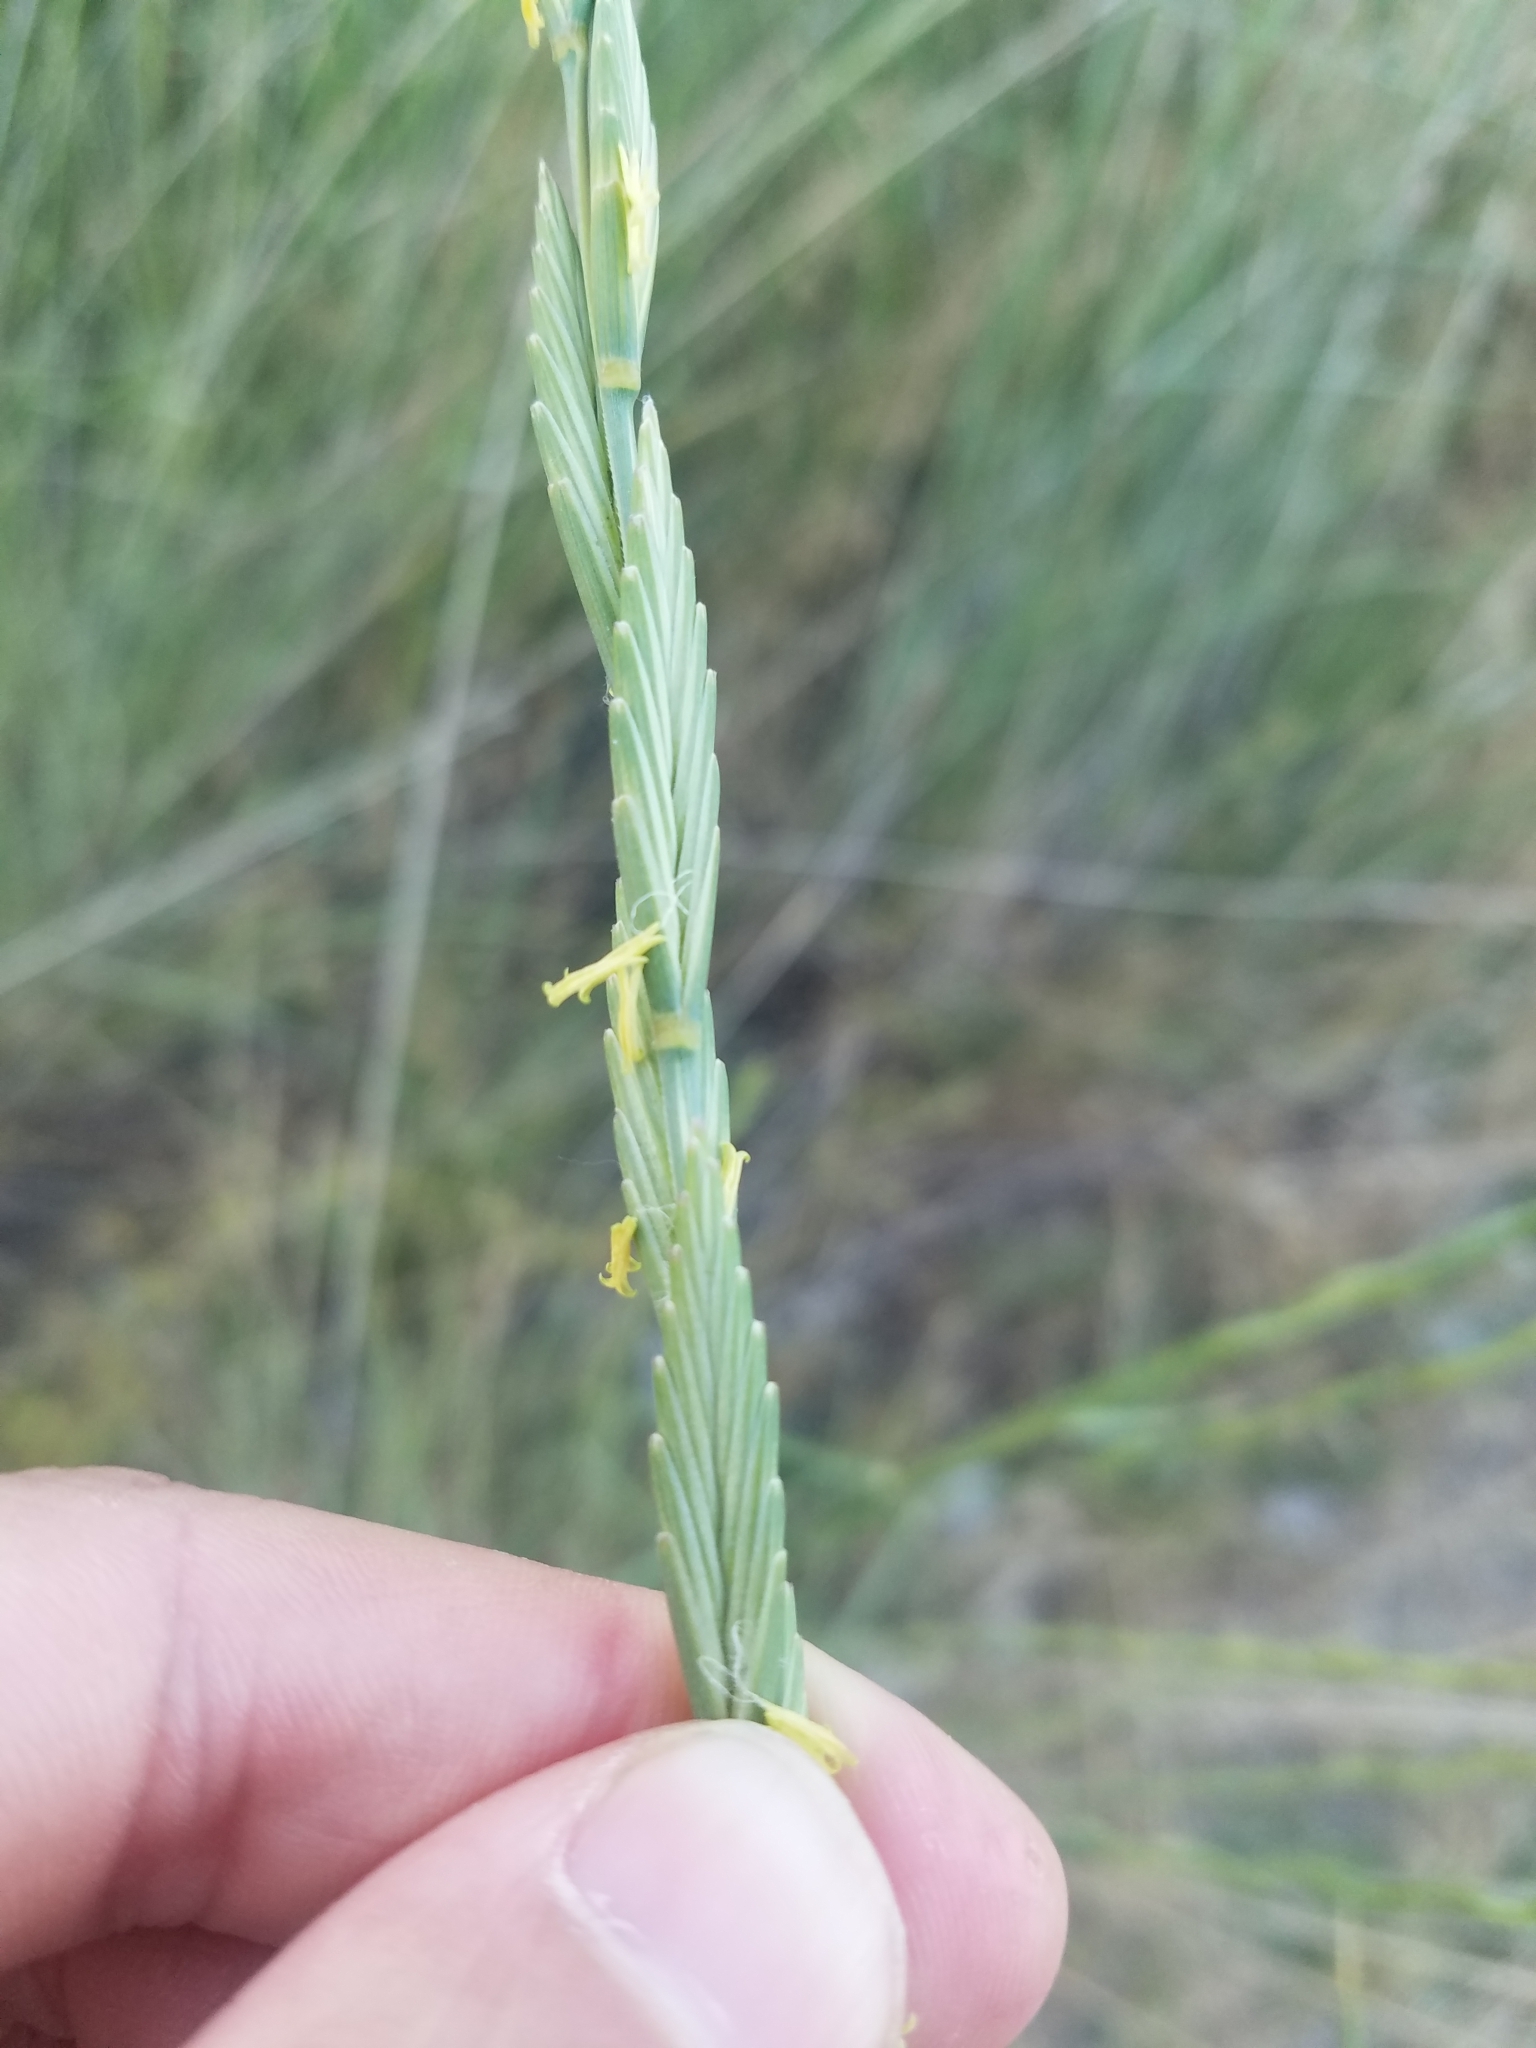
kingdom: Plantae
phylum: Tracheophyta
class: Liliopsida
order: Poales
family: Poaceae
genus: Thinopyrum
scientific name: Thinopyrum obtusiflorum
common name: Eurasian quackgrass
